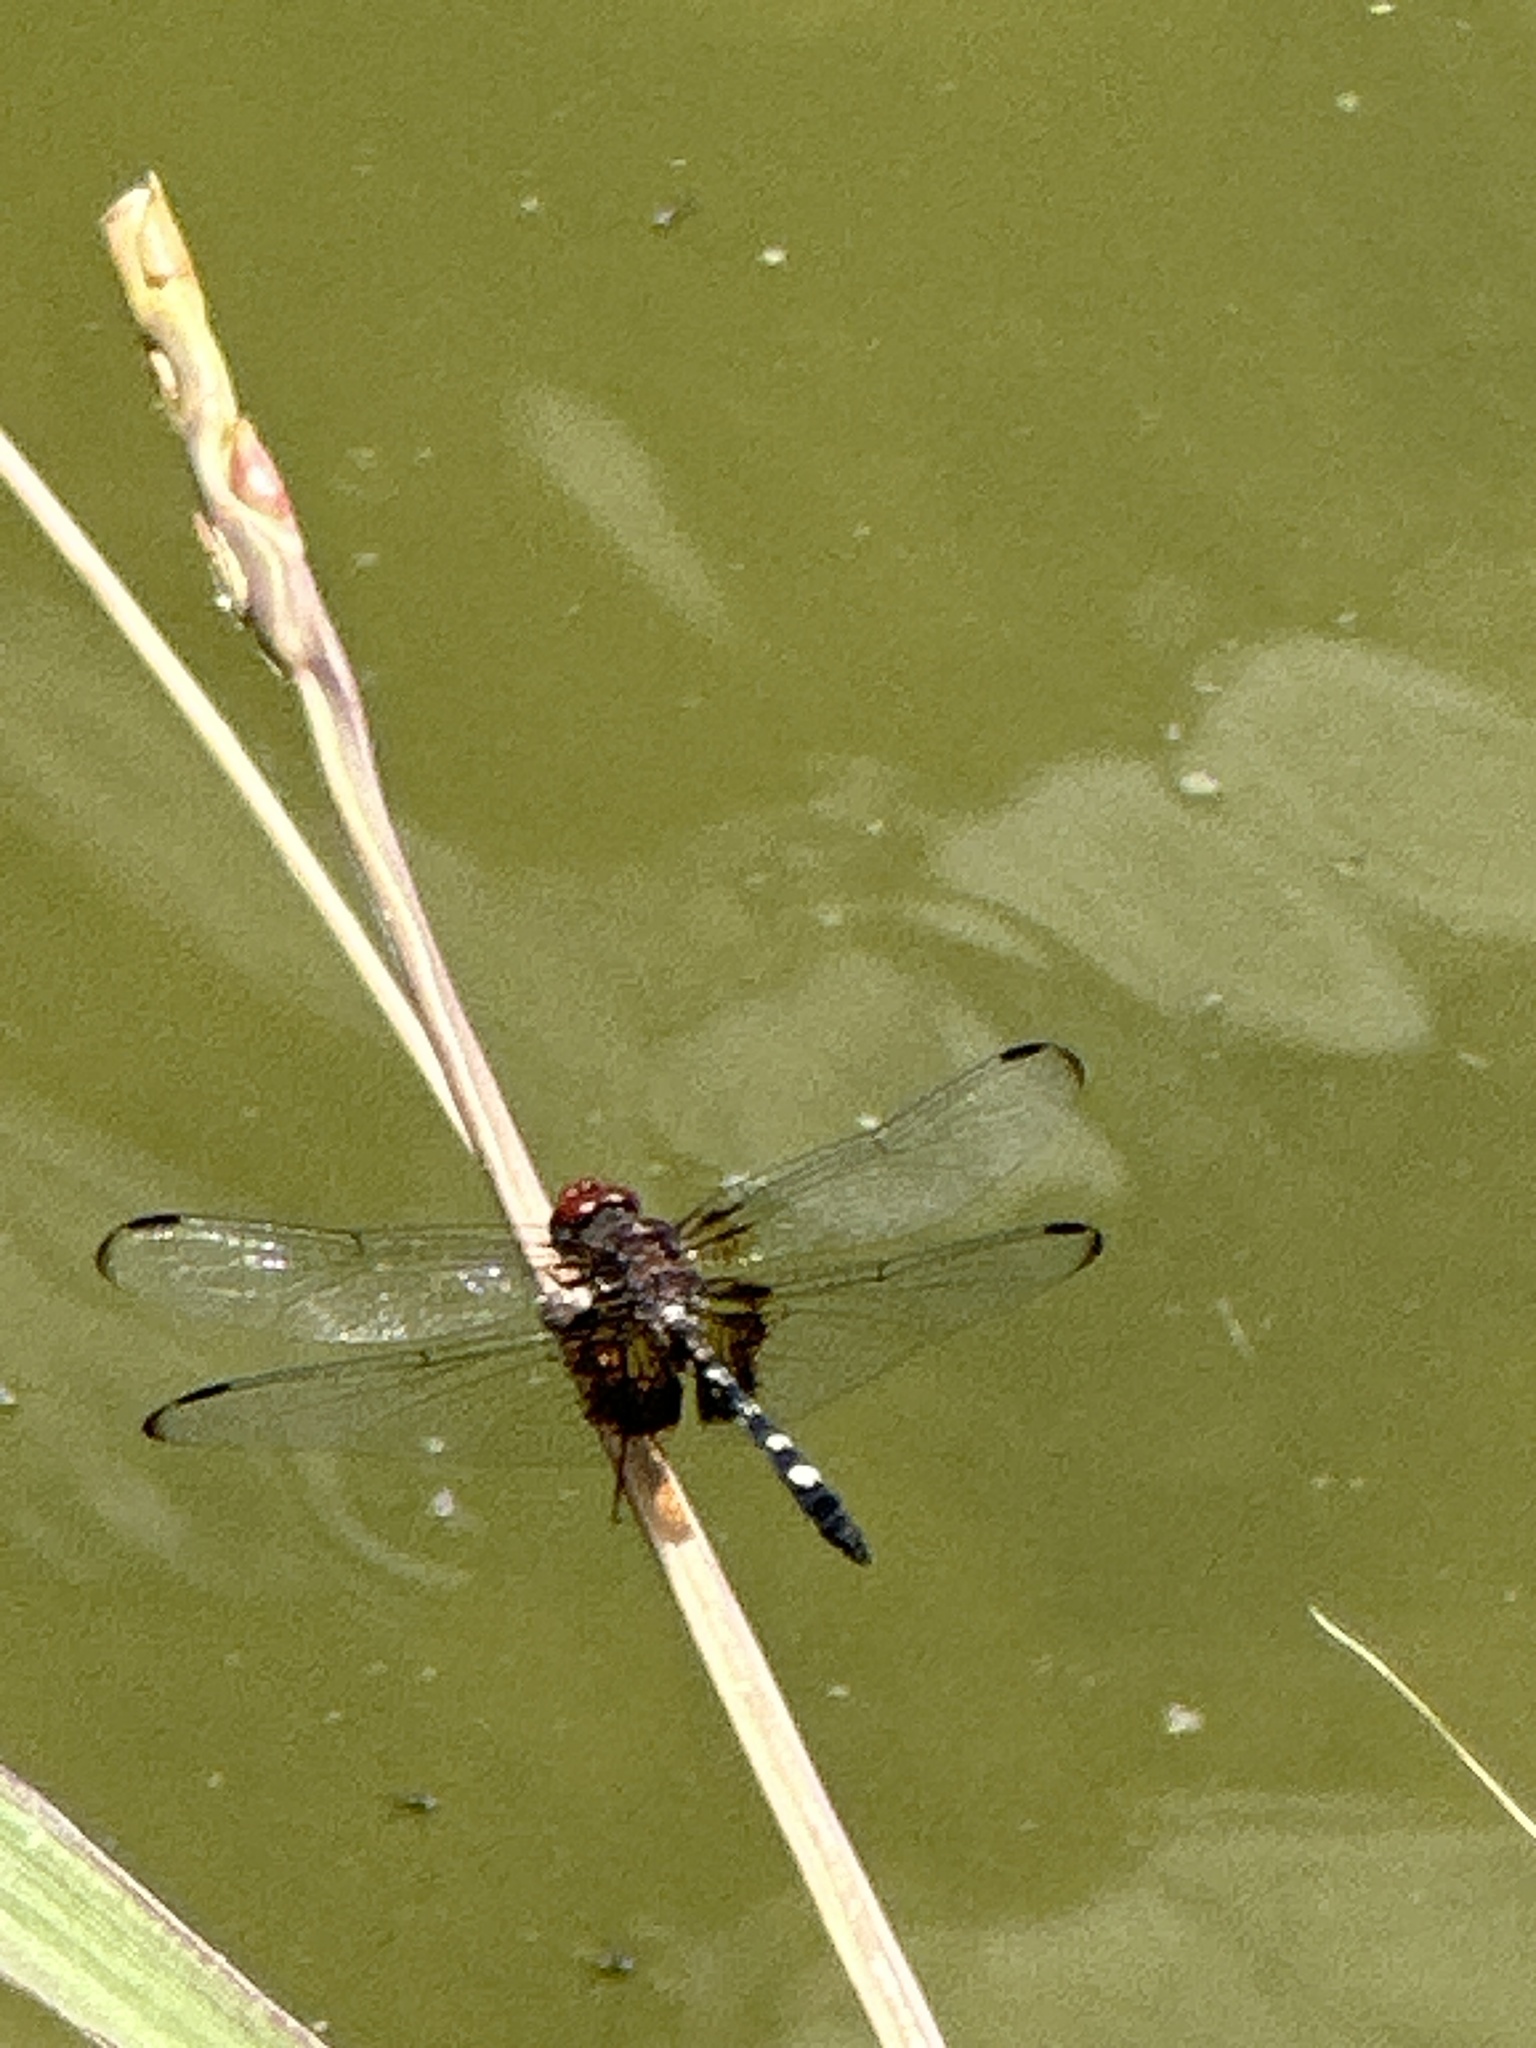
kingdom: Animalia
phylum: Arthropoda
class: Insecta
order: Odonata
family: Libellulidae
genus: Dythemis
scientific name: Dythemis fugax
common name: Checkered setwing
